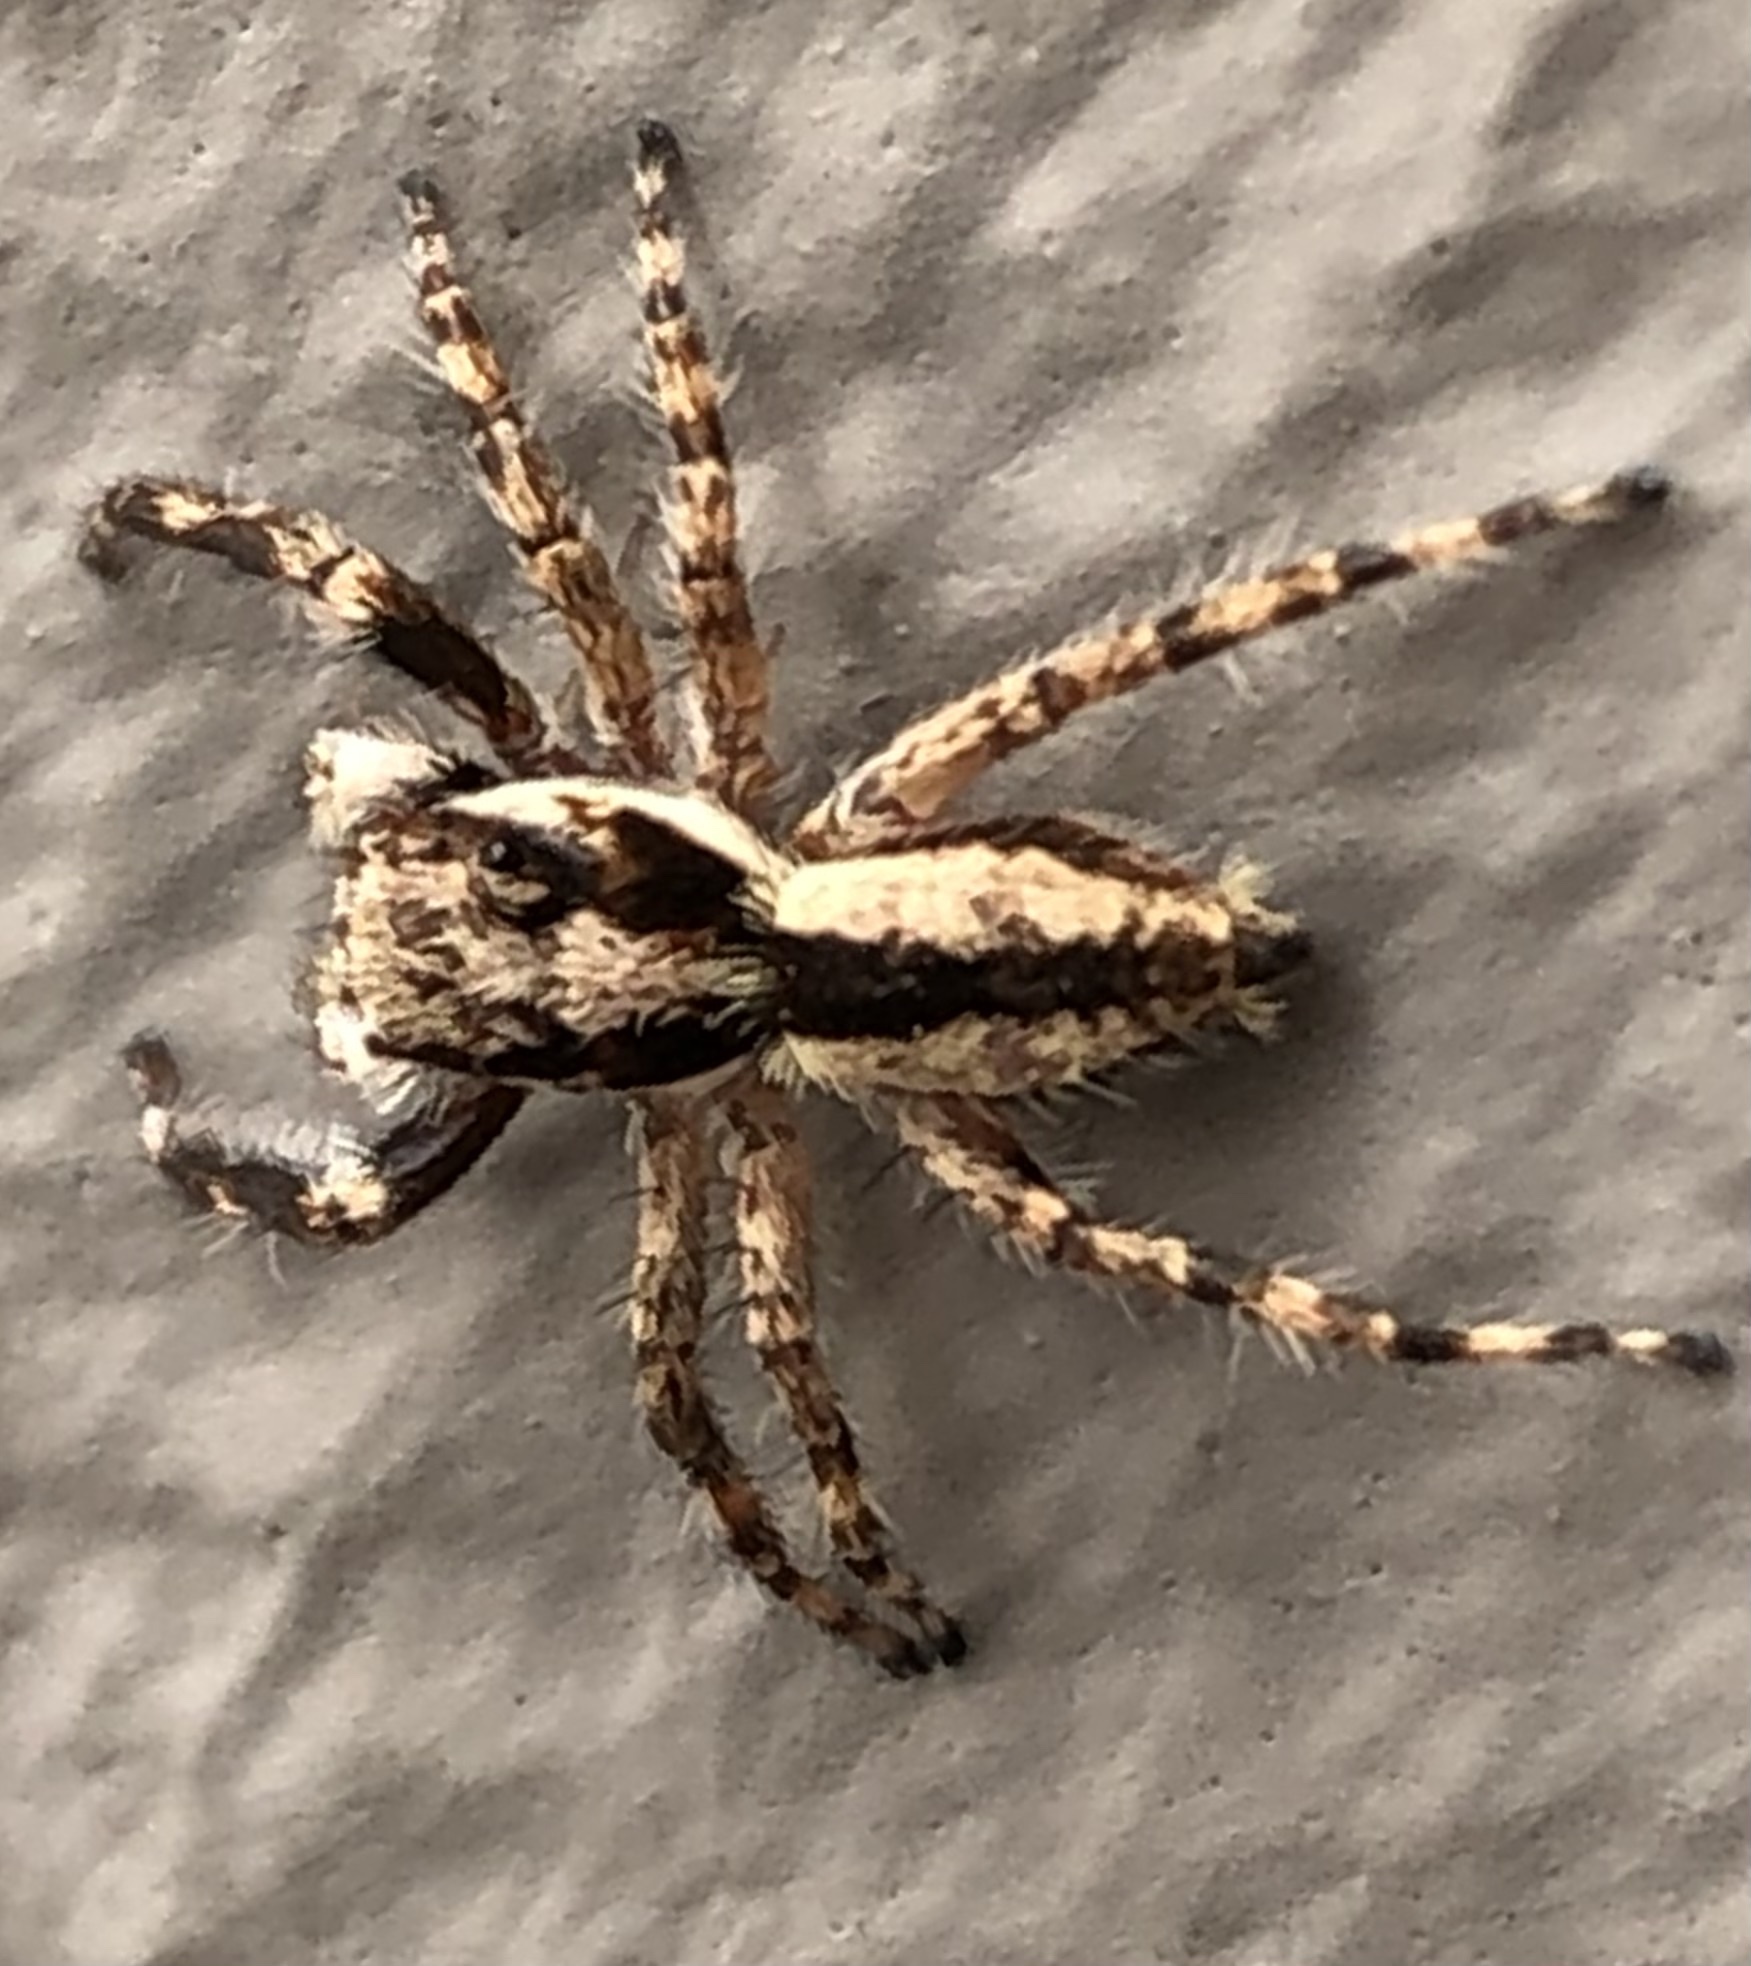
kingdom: Animalia
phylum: Arthropoda
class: Arachnida
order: Araneae
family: Salticidae
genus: Menemerus
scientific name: Menemerus bivittatus
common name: Gray wall jumper
